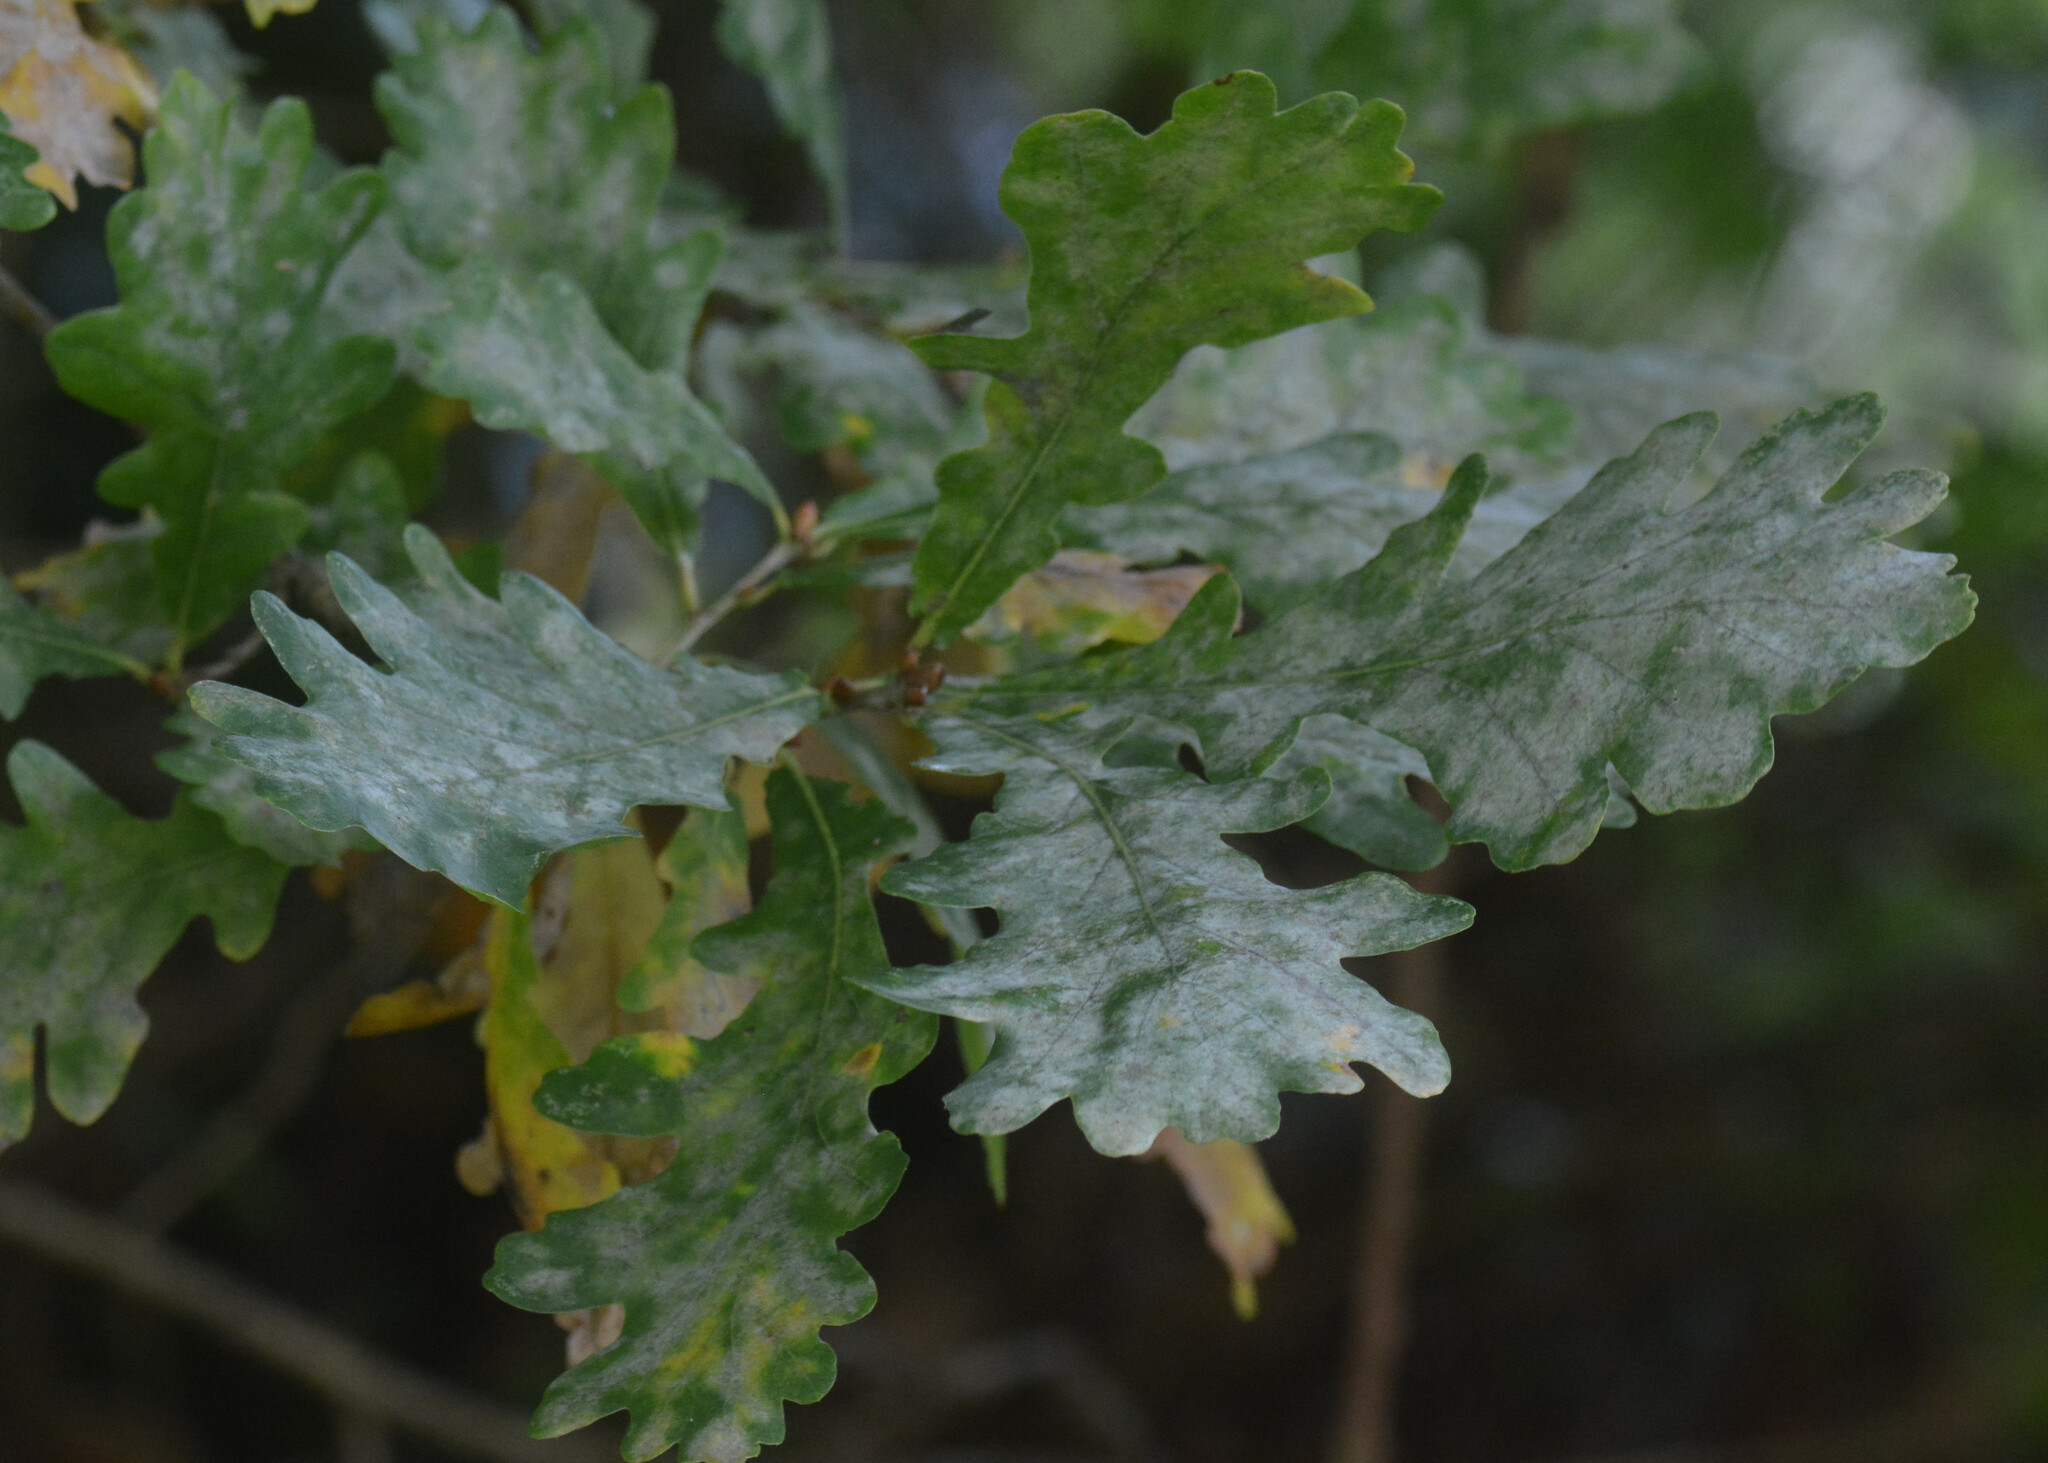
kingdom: Fungi
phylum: Ascomycota
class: Leotiomycetes
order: Helotiales
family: Erysiphaceae
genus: Erysiphe
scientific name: Erysiphe alphitoides
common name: Oak mildew
